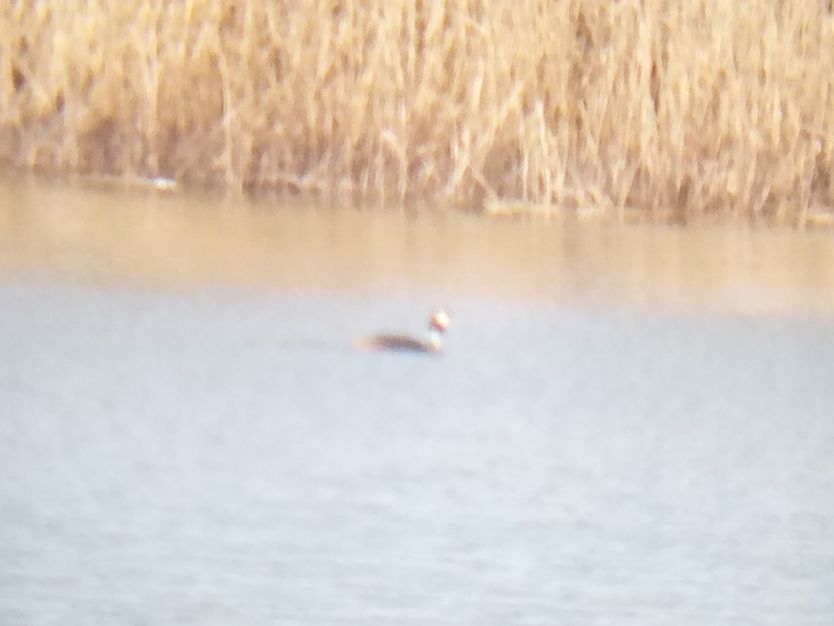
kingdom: Animalia
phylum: Chordata
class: Aves
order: Podicipediformes
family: Podicipedidae
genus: Podiceps
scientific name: Podiceps cristatus
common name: Great crested grebe
